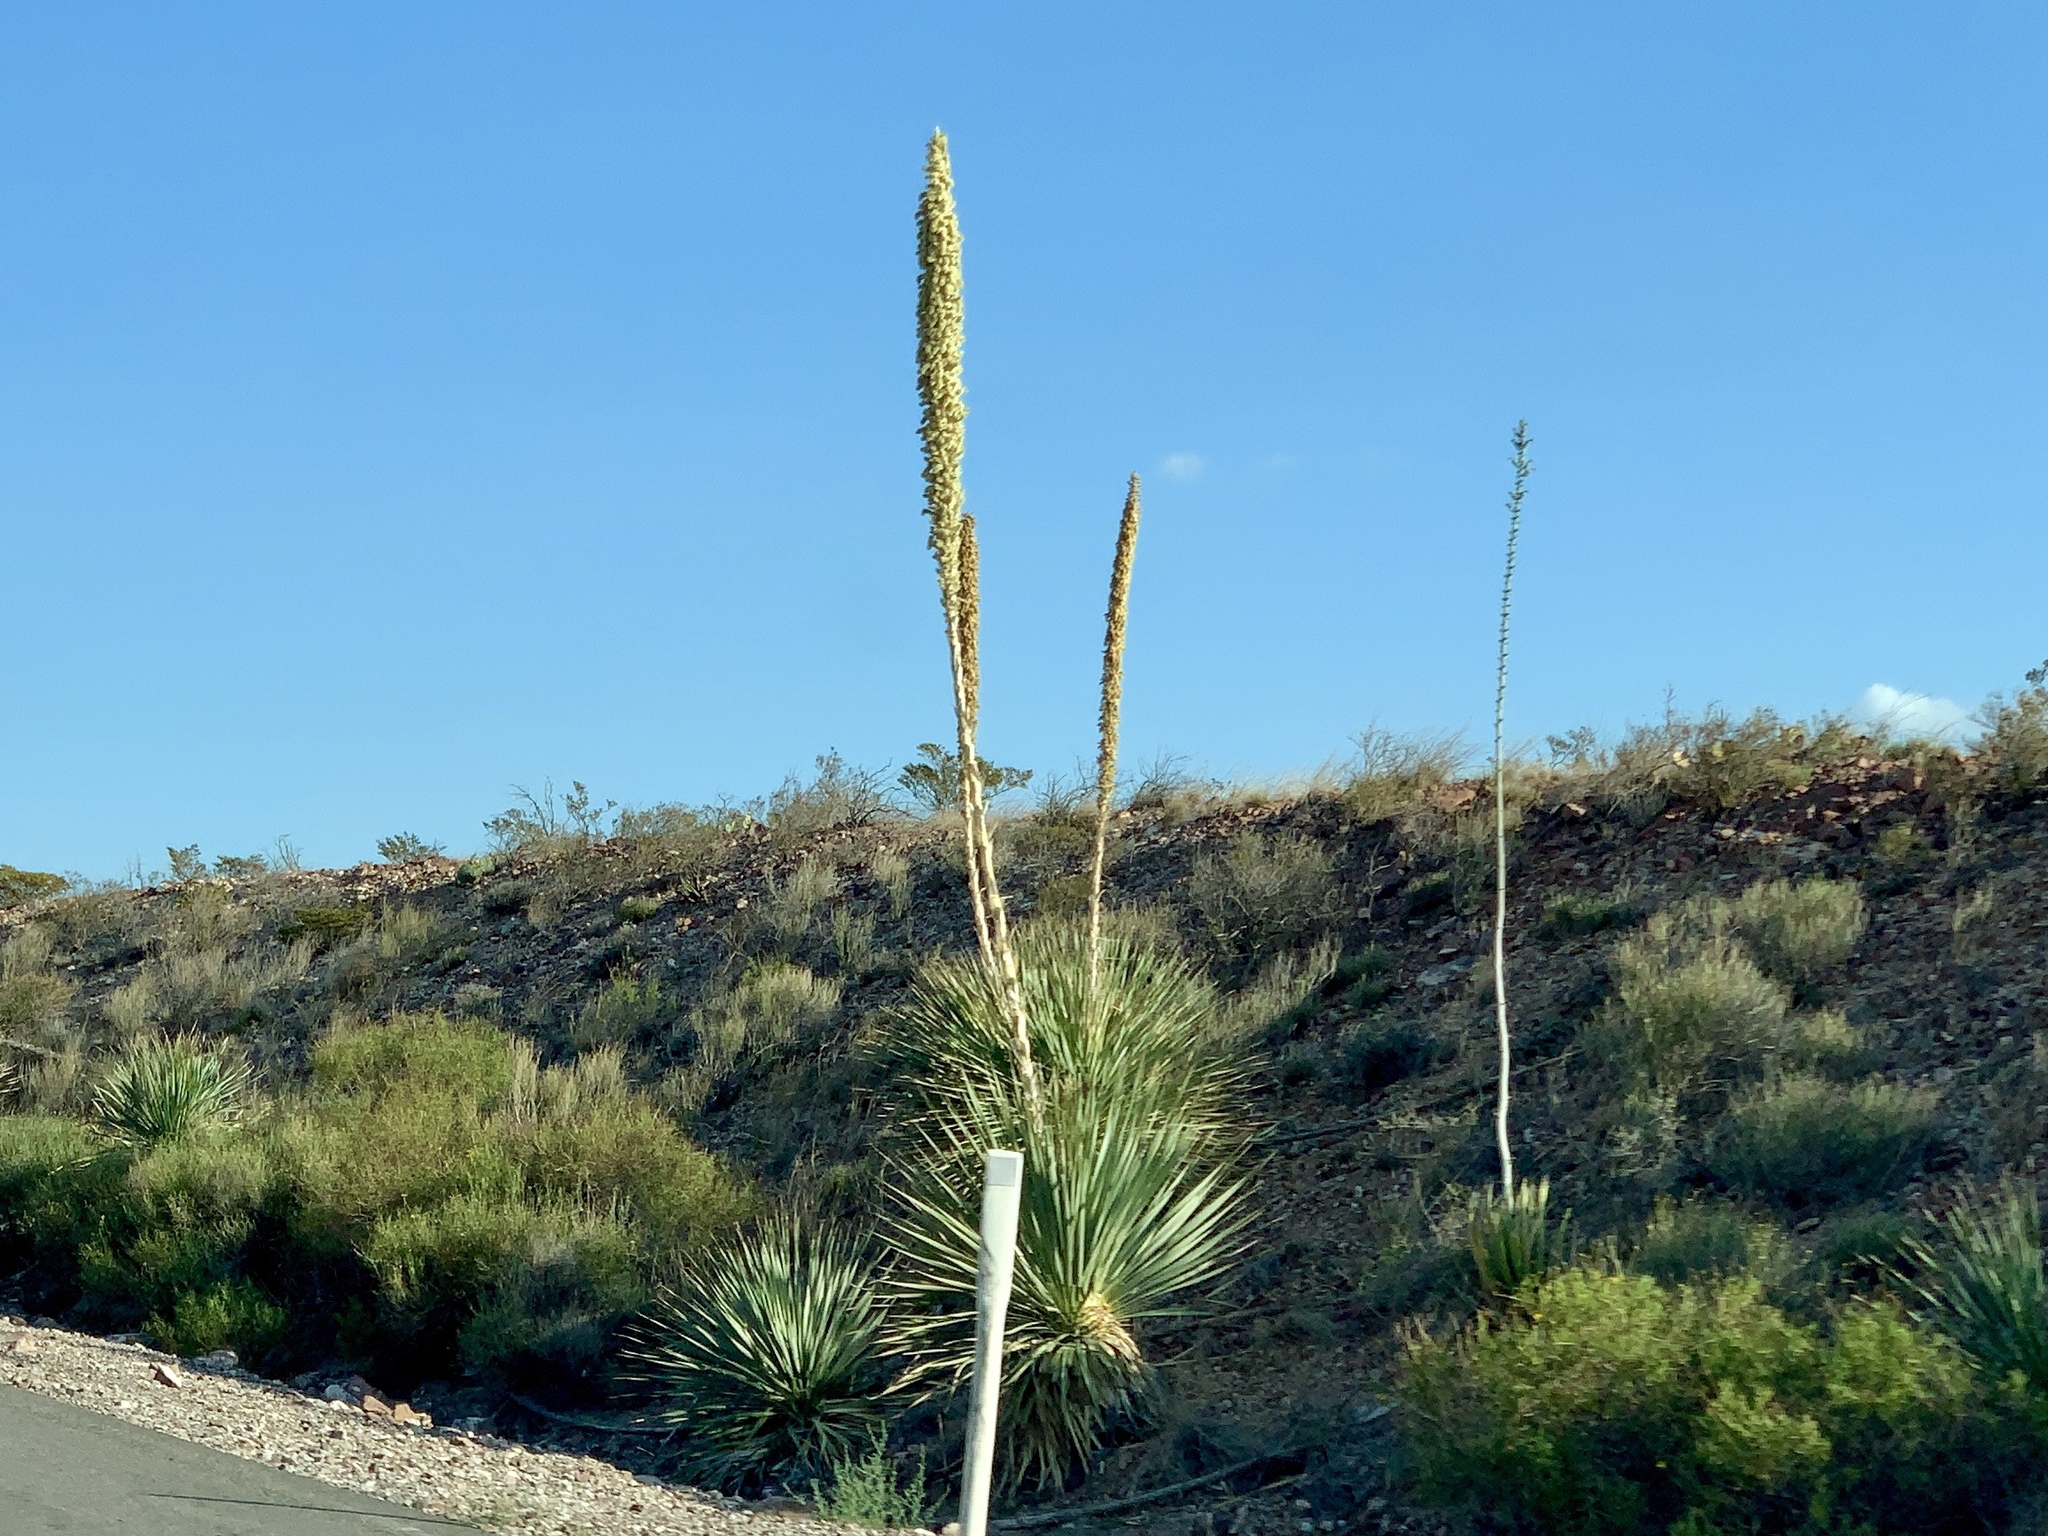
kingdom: Plantae
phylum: Tracheophyta
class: Liliopsida
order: Asparagales
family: Asparagaceae
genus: Dasylirion
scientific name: Dasylirion wheeleri
